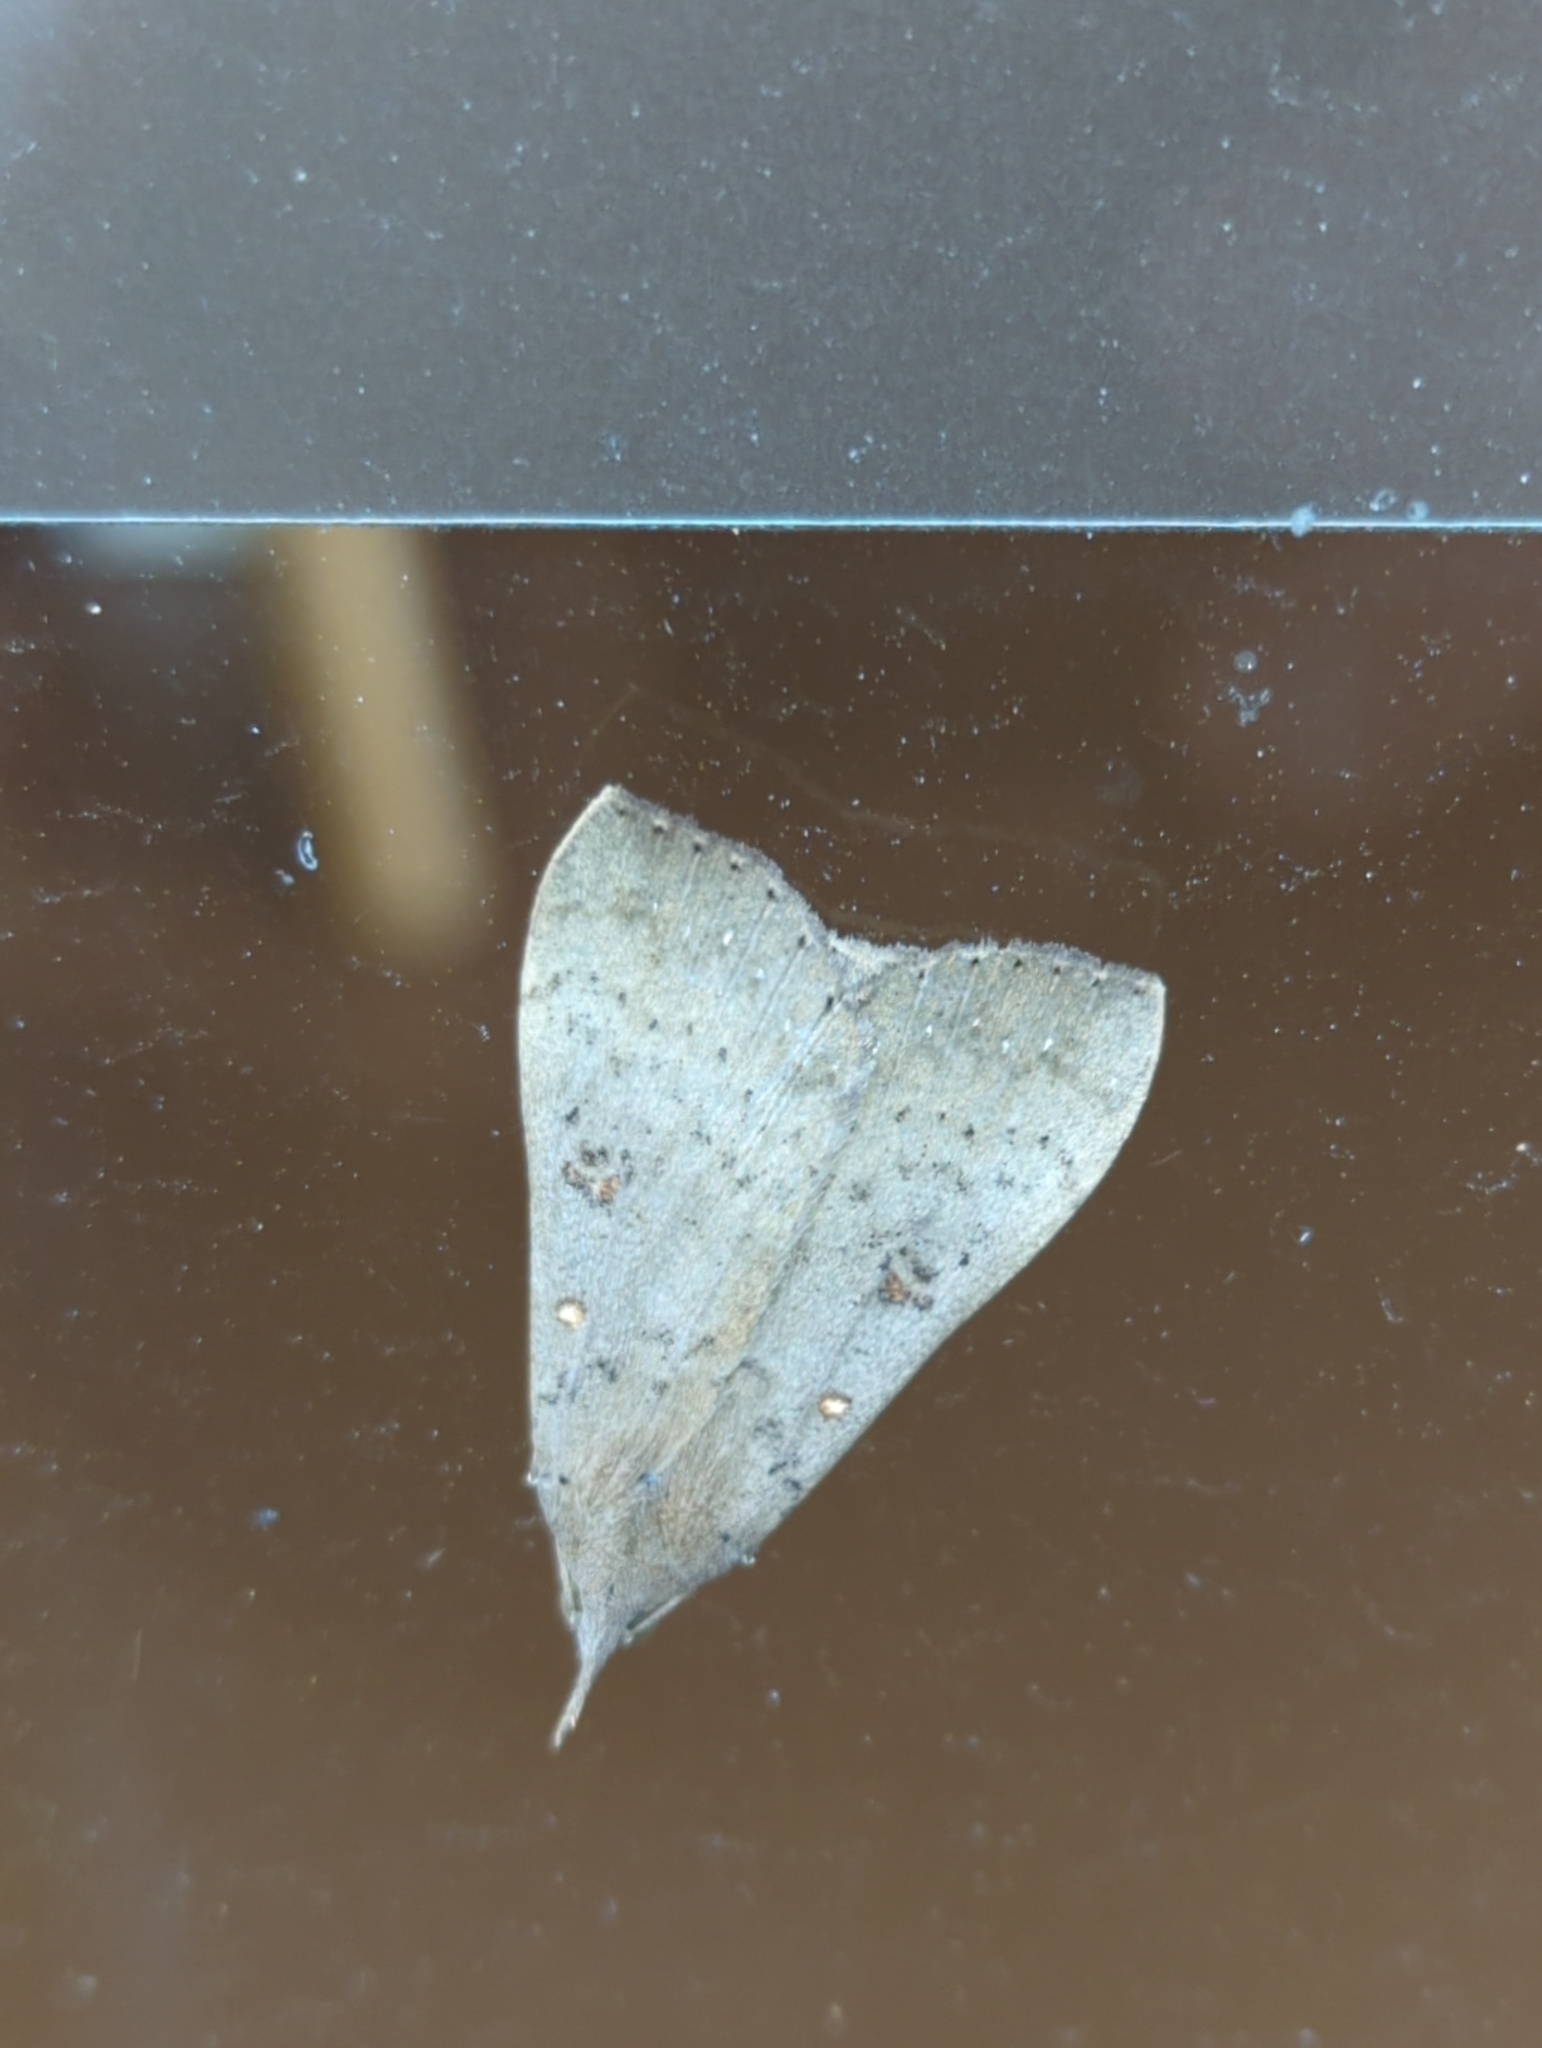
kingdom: Animalia
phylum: Arthropoda
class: Insecta
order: Lepidoptera
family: Erebidae
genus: Rhapsa
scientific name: Rhapsa suscitatalis
